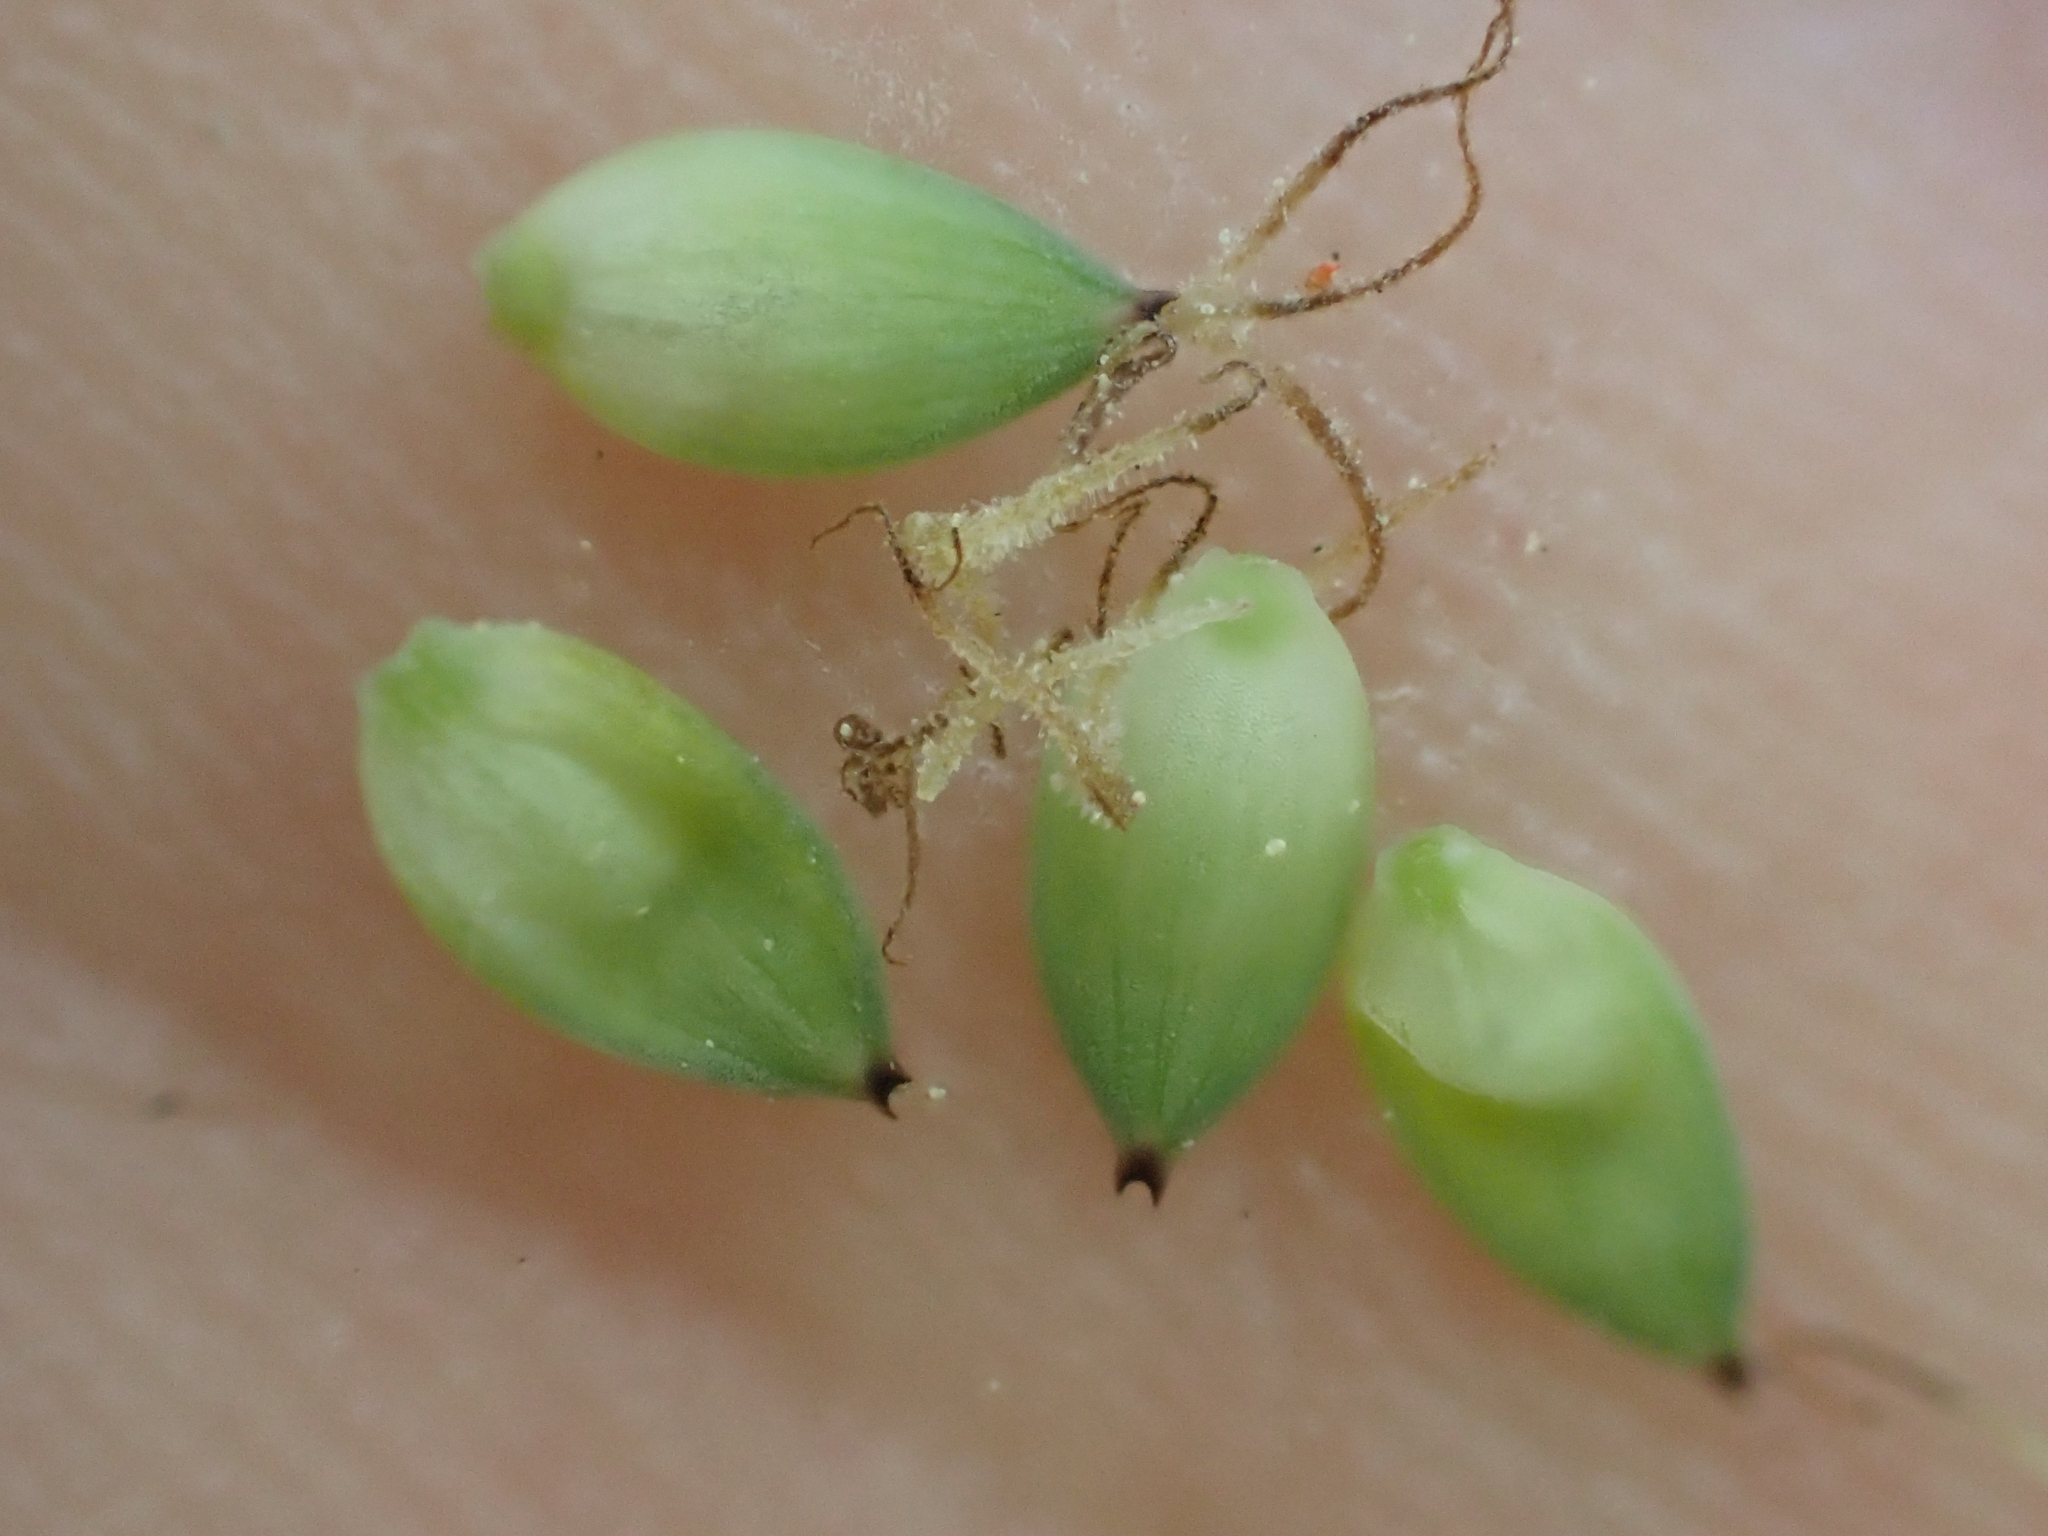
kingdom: Plantae
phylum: Tracheophyta
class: Liliopsida
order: Poales
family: Cyperaceae
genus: Carex
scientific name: Carex buxbaumii
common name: Club sedge
